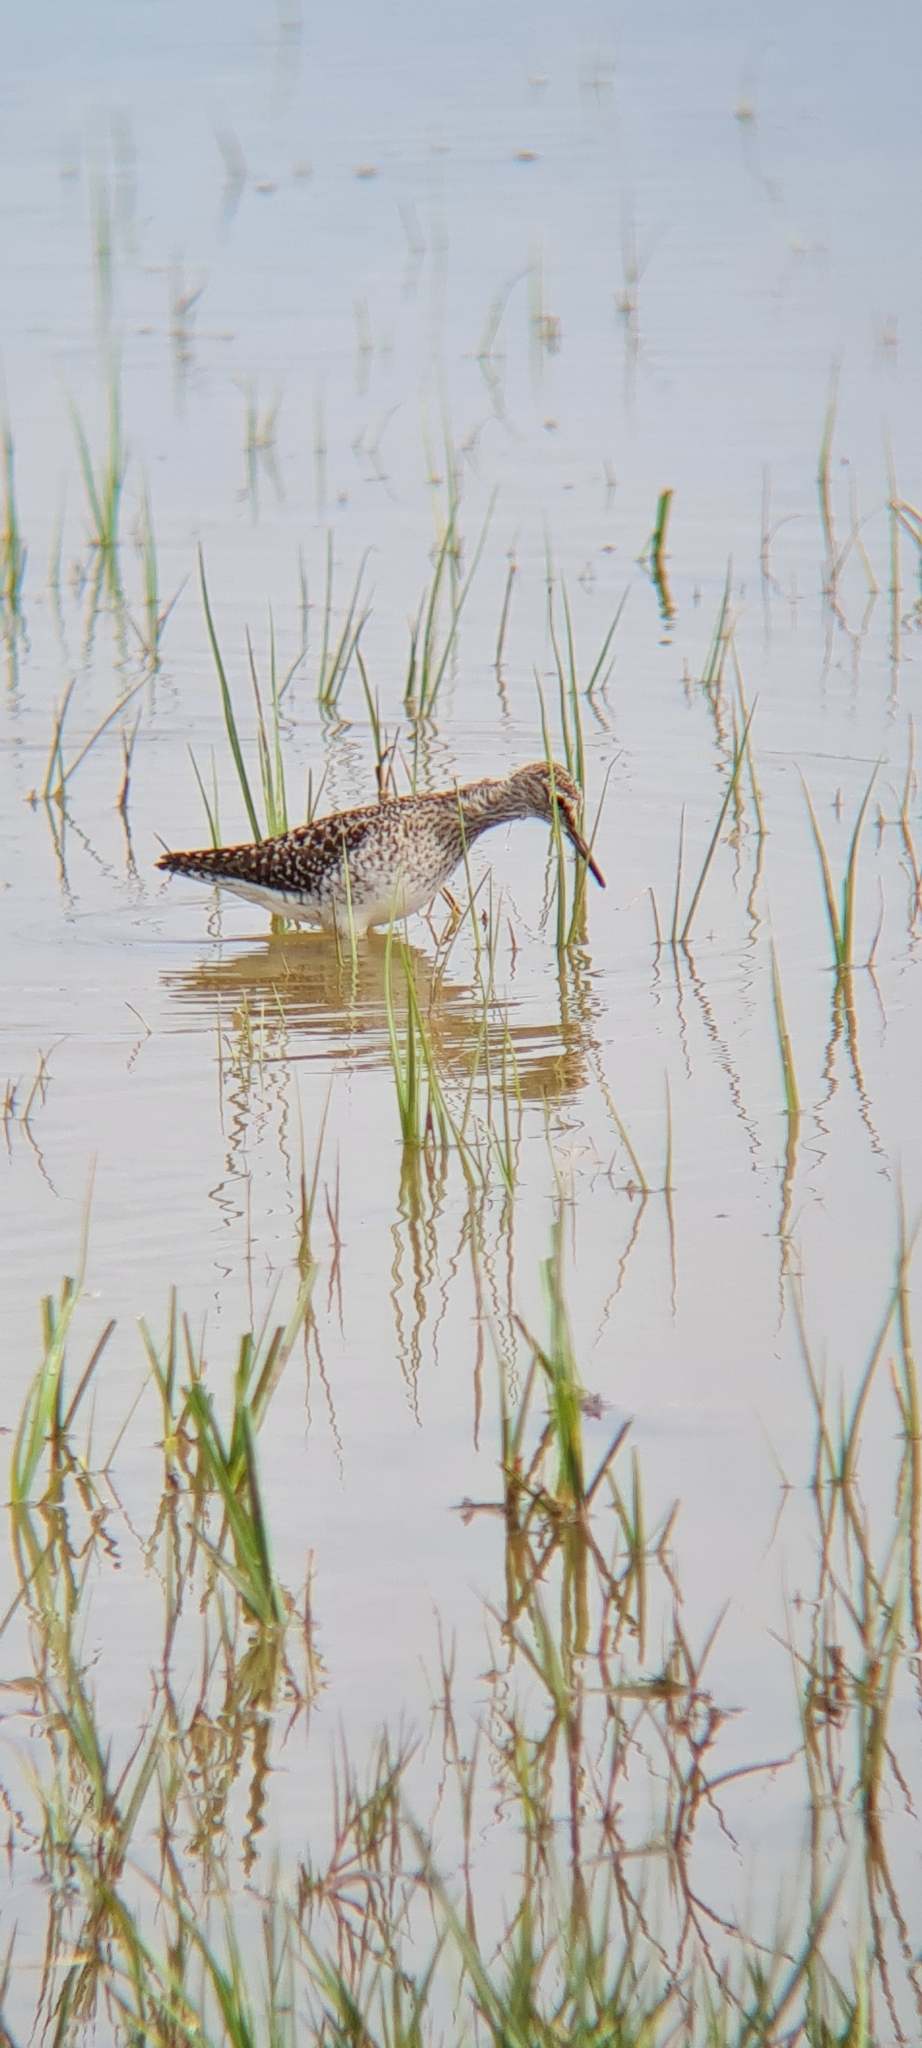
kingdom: Animalia
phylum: Chordata
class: Aves
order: Charadriiformes
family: Scolopacidae
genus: Tringa
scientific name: Tringa glareola
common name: Wood sandpiper
